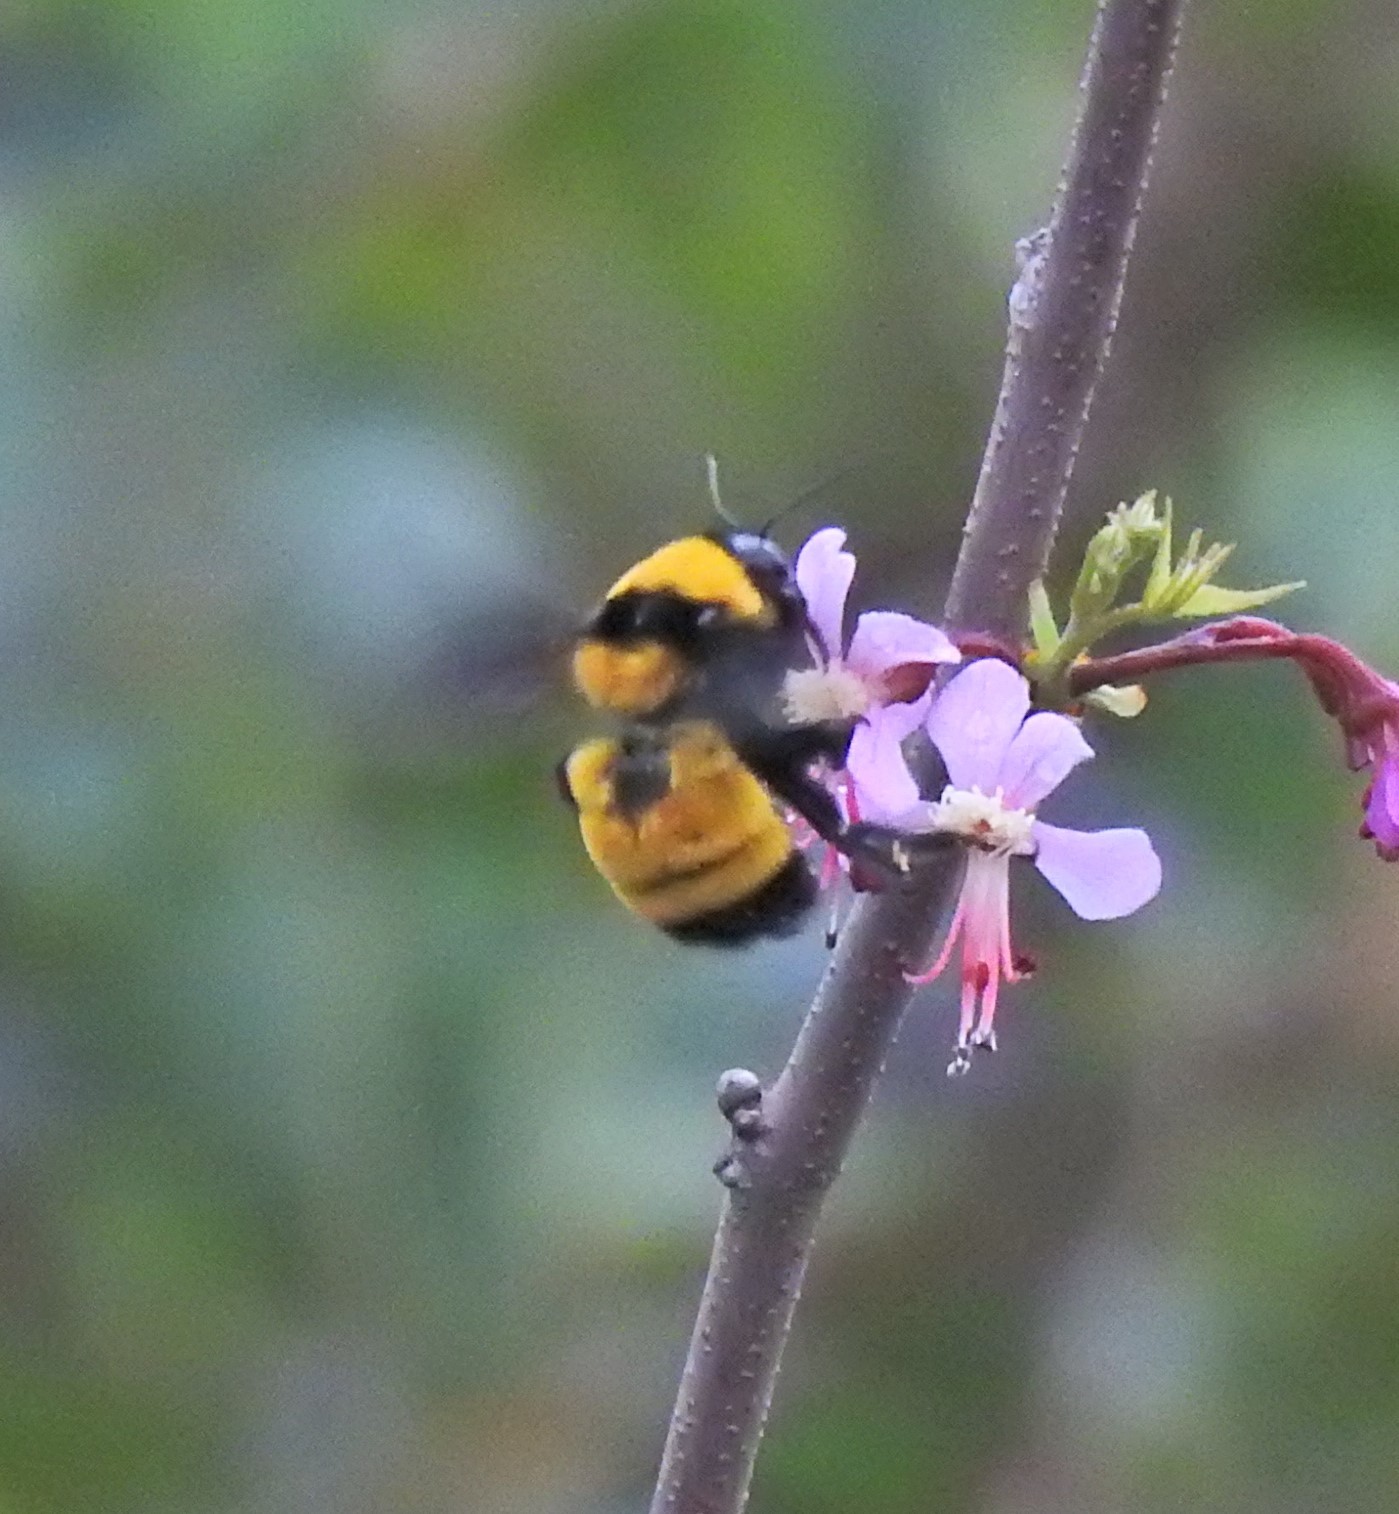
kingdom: Animalia
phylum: Arthropoda
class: Insecta
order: Hymenoptera
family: Apidae
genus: Bombus
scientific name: Bombus sonorus
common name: Sonoran bumble bee
